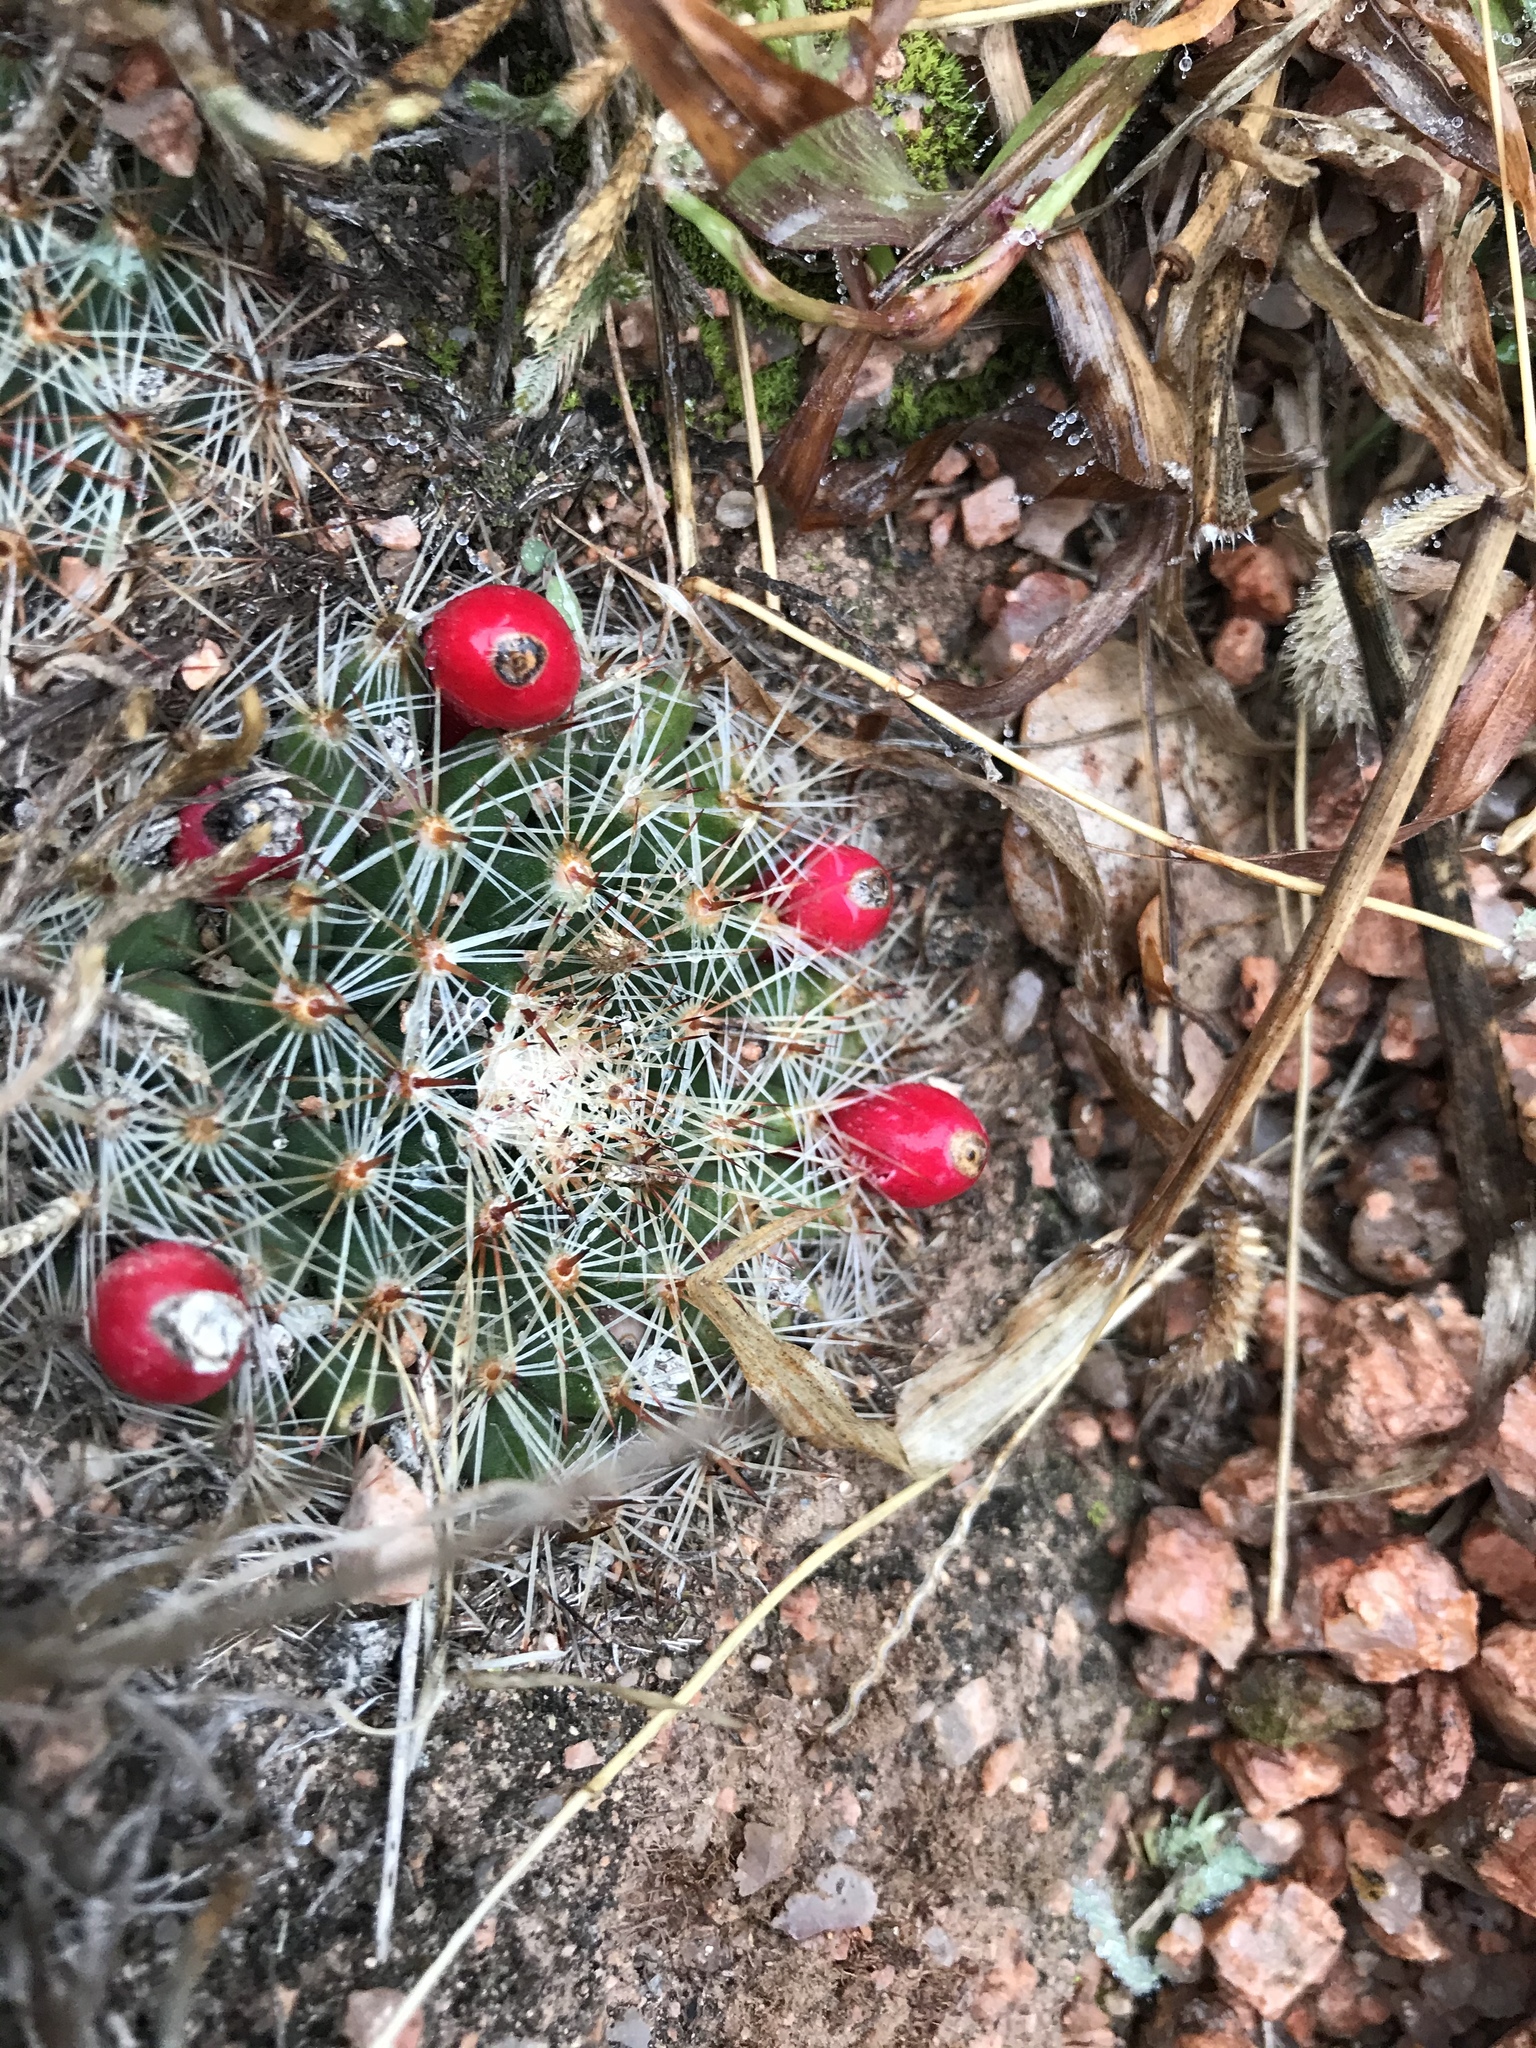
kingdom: Plantae
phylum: Tracheophyta
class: Magnoliopsida
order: Caryophyllales
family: Cactaceae
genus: Mammillaria
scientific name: Mammillaria heyderi
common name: Little nipple cactus
